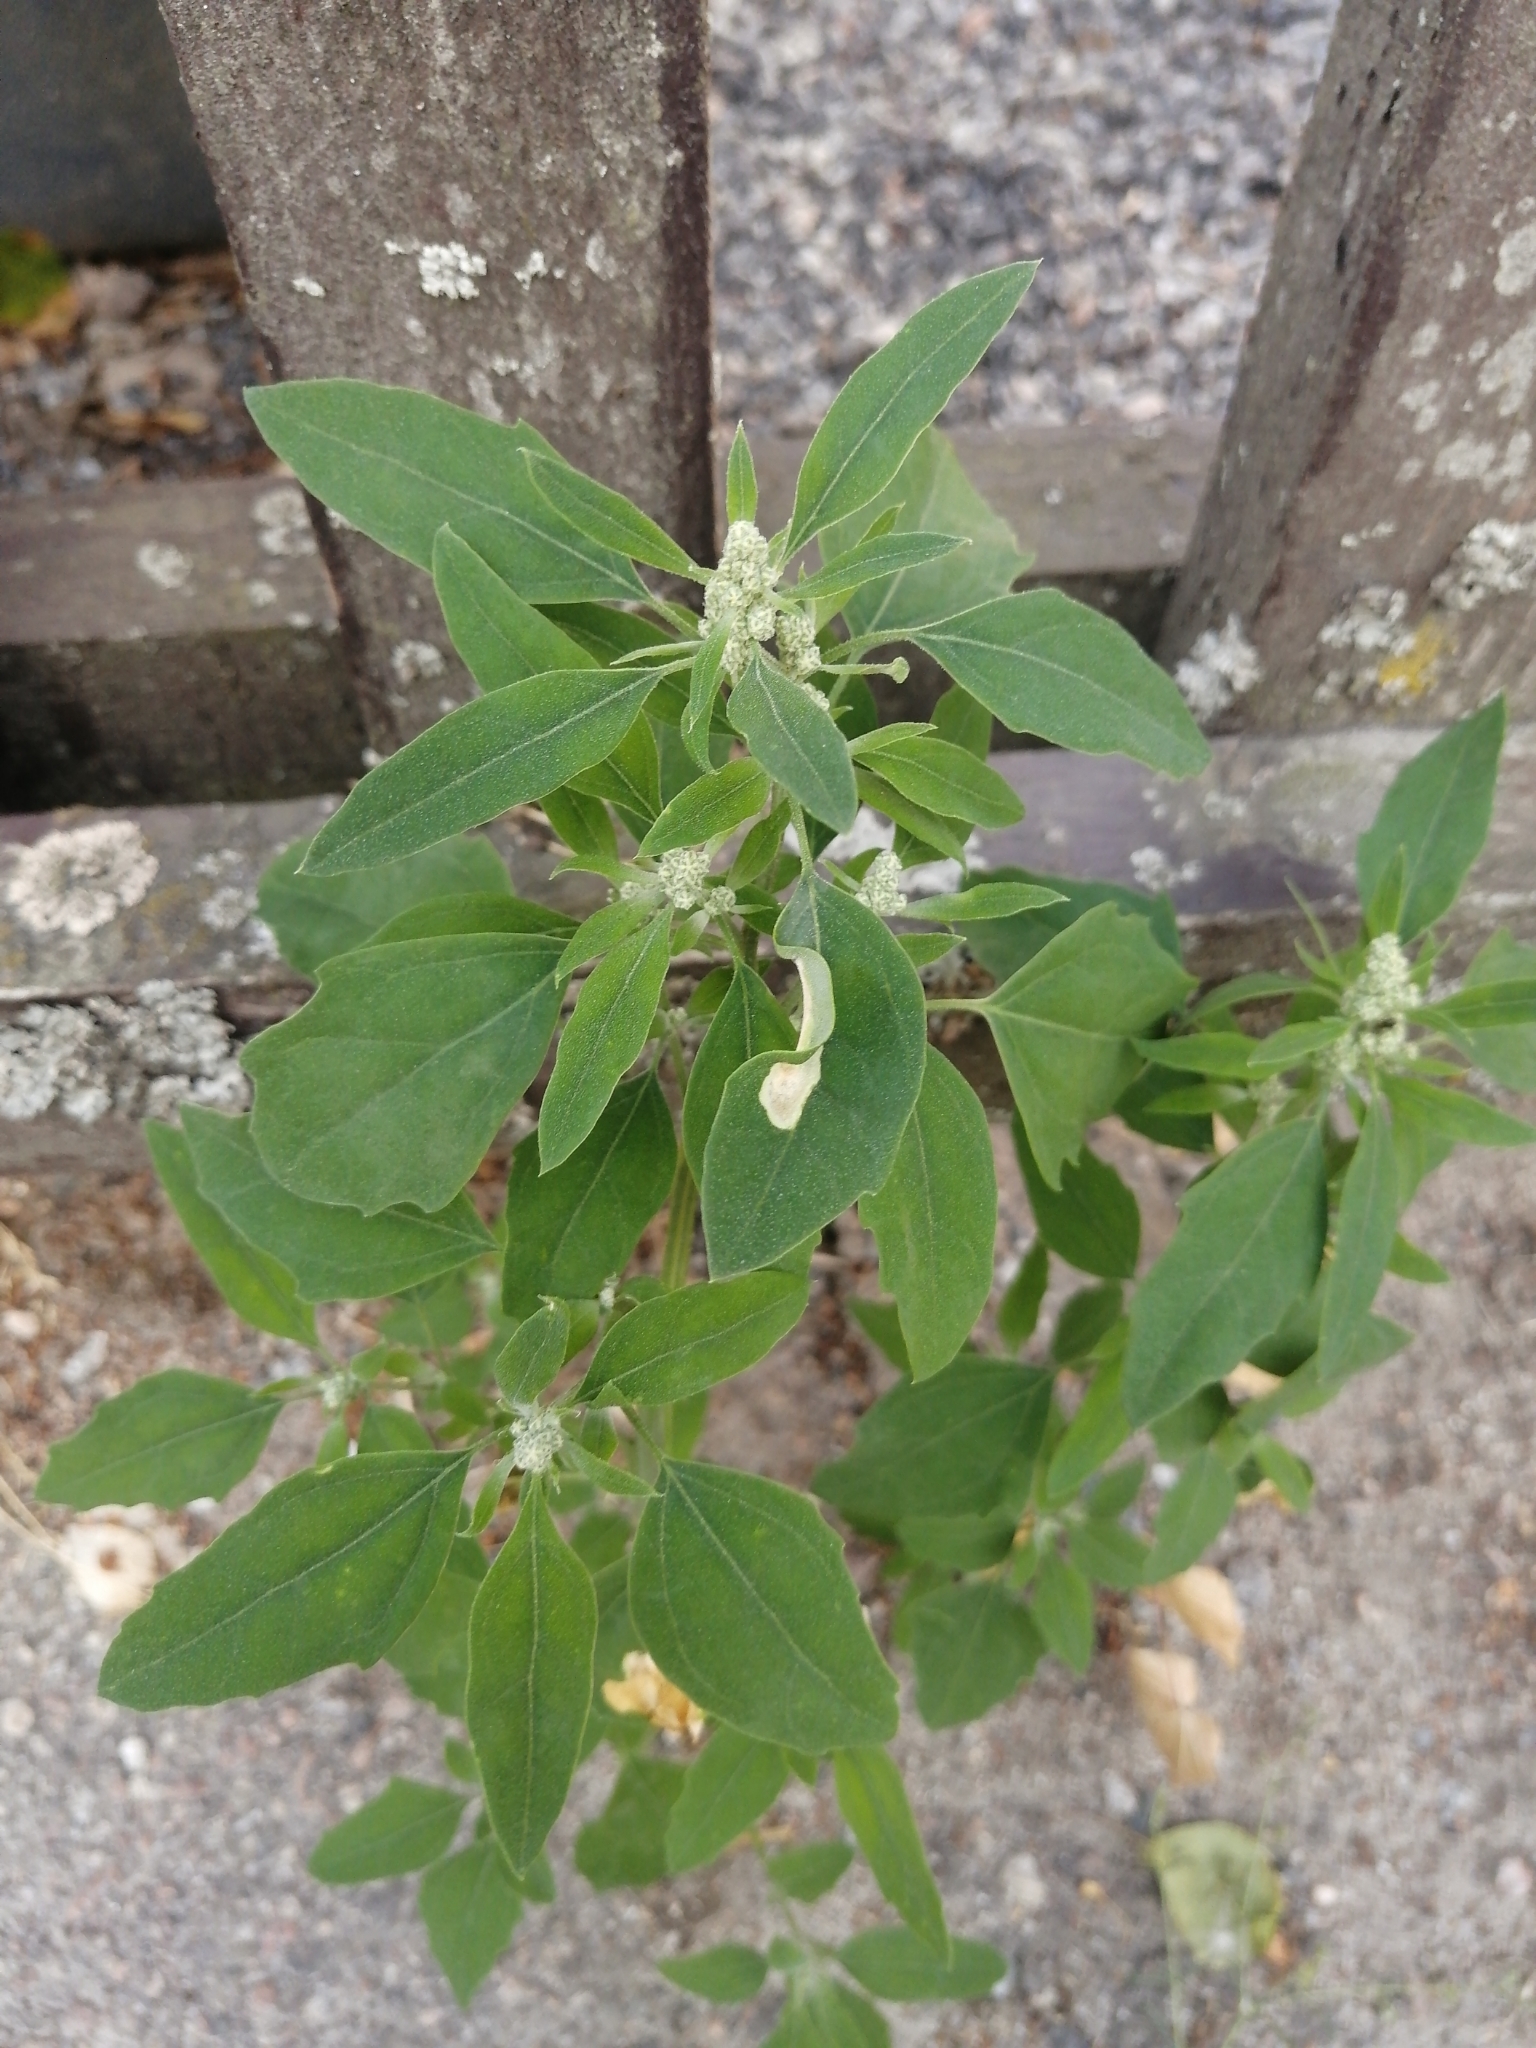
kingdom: Plantae
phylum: Tracheophyta
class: Magnoliopsida
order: Caryophyllales
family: Amaranthaceae
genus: Chenopodium
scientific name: Chenopodium album
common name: Fat-hen
